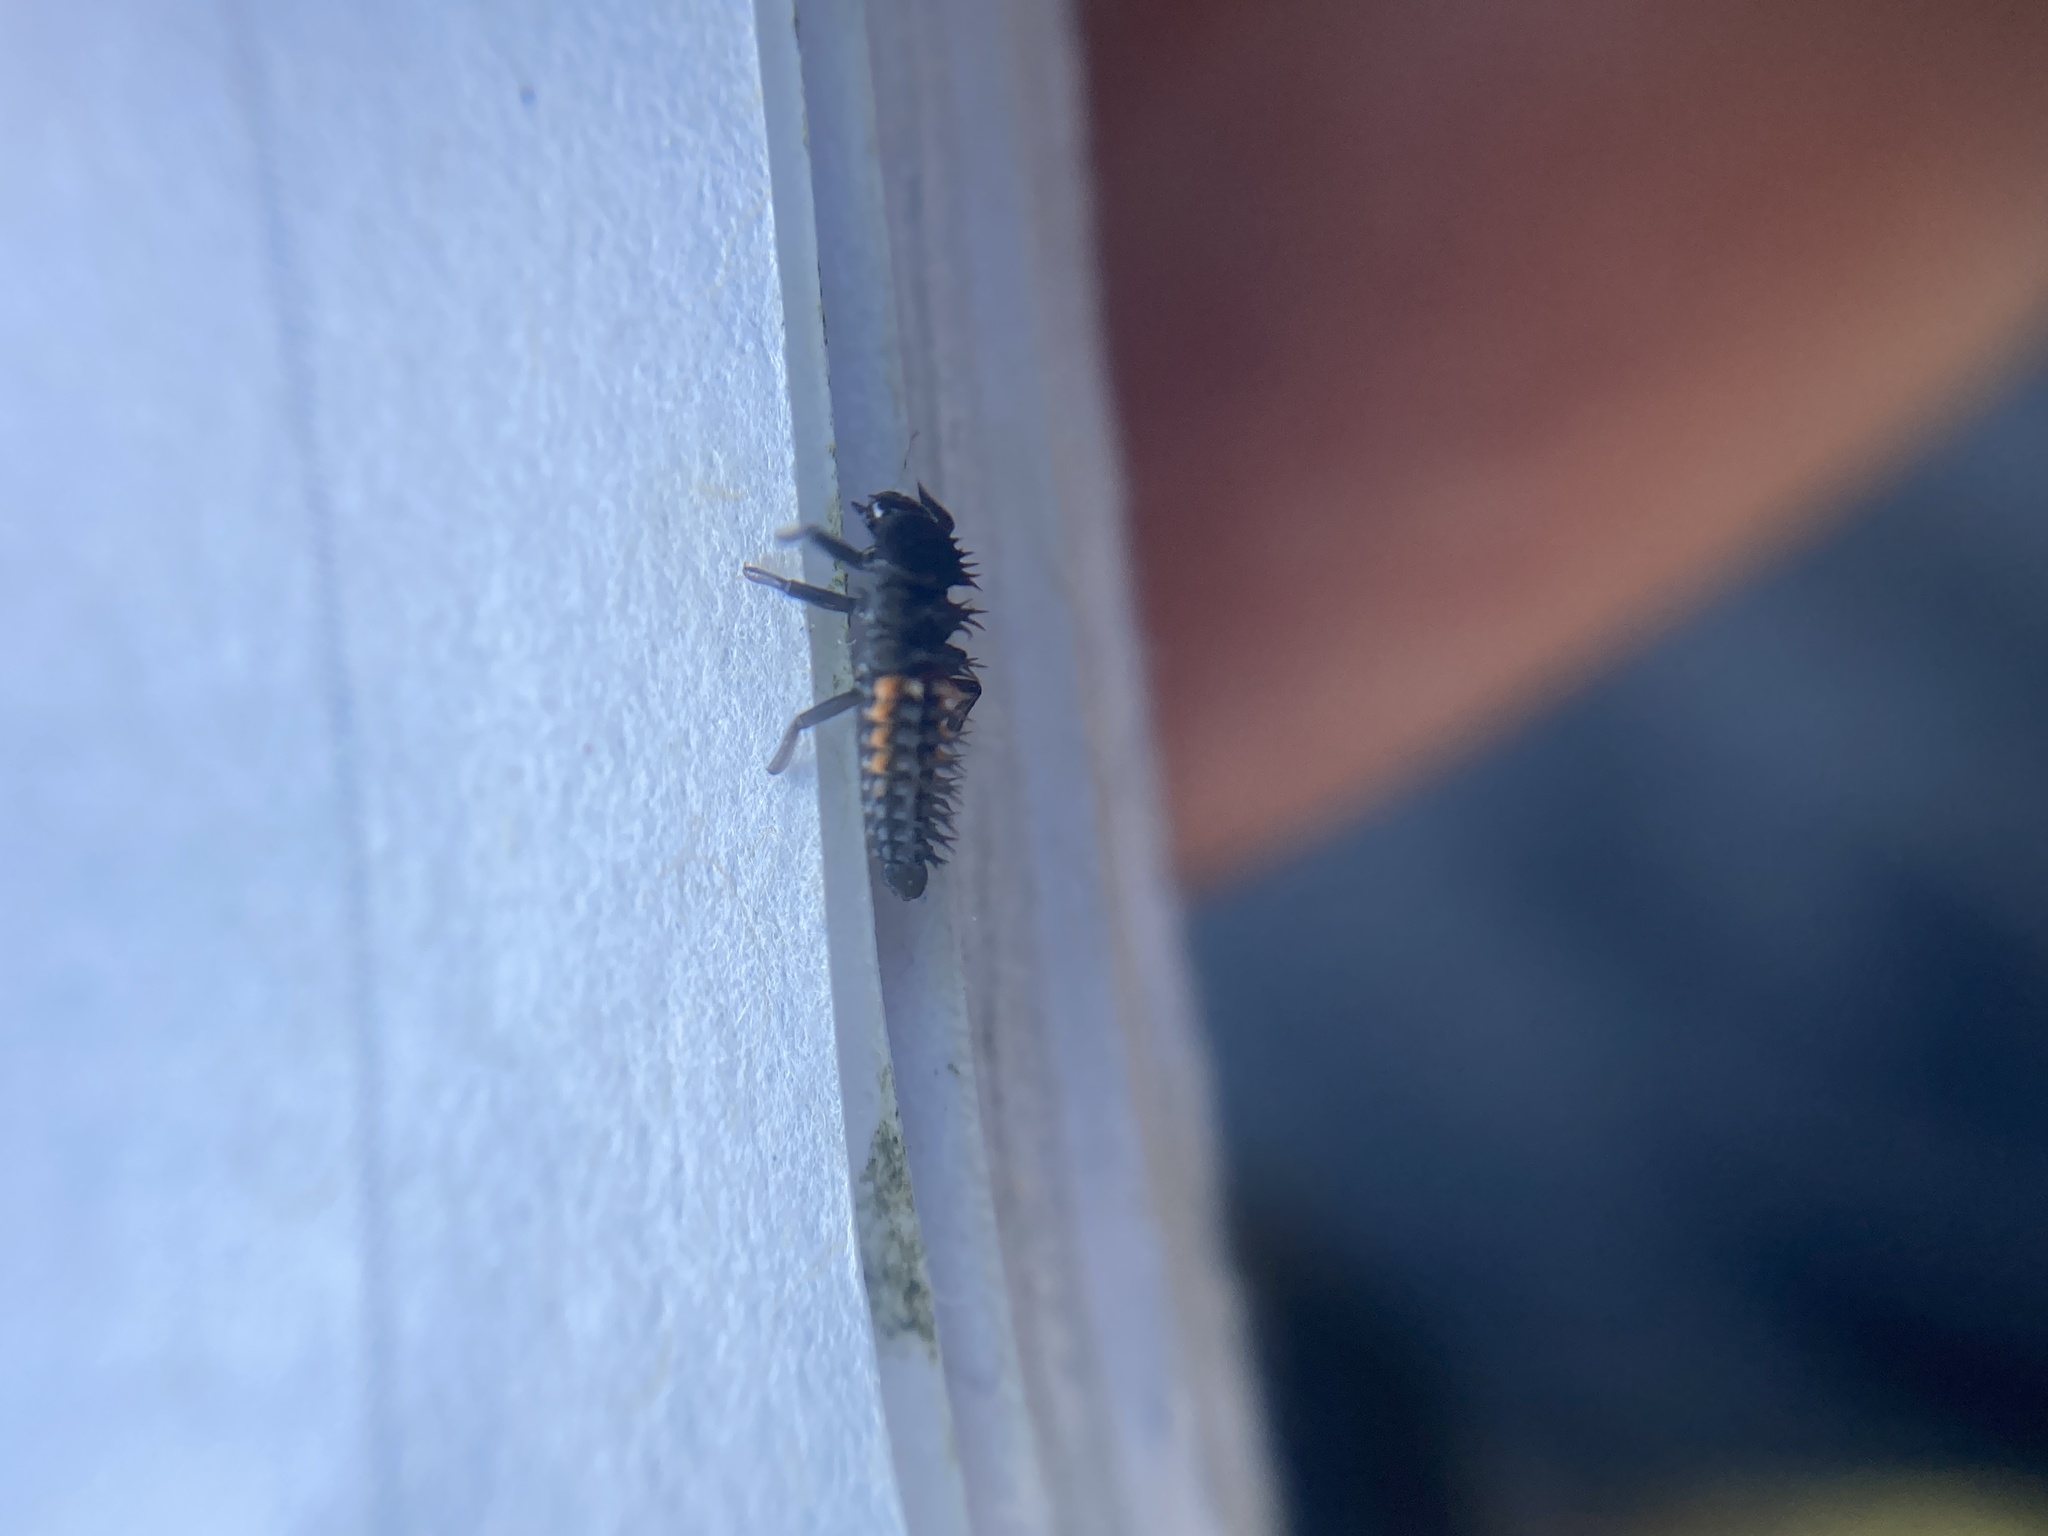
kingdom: Animalia
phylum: Arthropoda
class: Insecta
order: Coleoptera
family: Coccinellidae
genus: Harmonia
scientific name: Harmonia axyridis
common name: Harlequin ladybird
